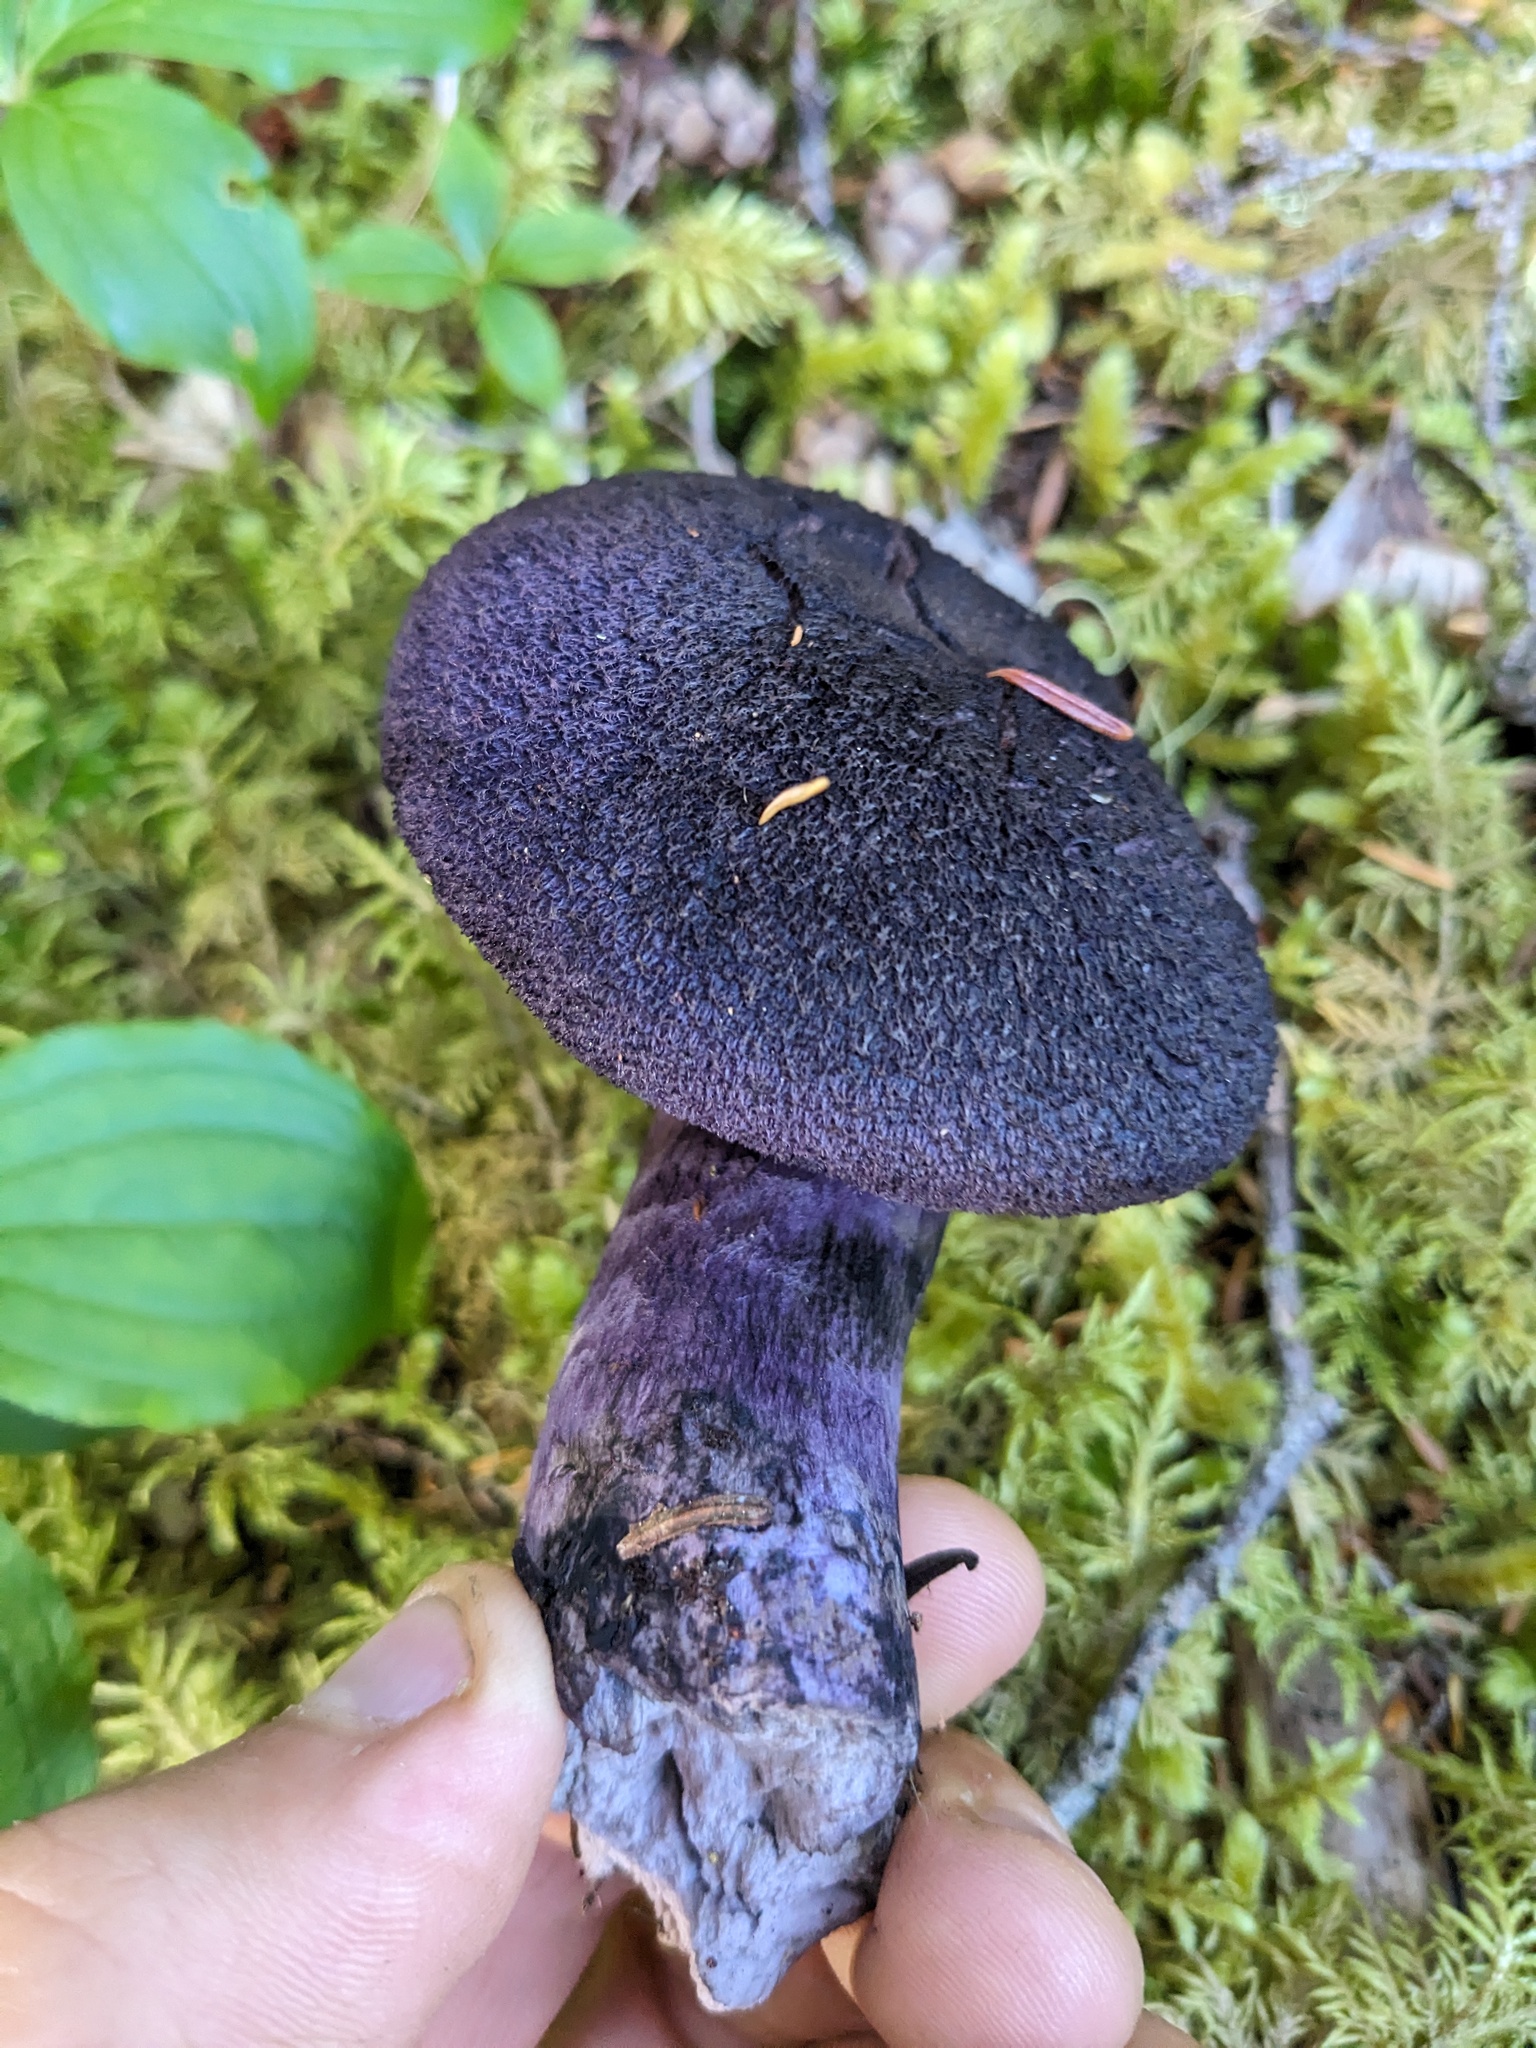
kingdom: Fungi
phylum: Basidiomycota
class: Agaricomycetes
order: Agaricales
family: Cortinariaceae
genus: Cortinarius
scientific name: Cortinarius violaceus
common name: Violet webcap
